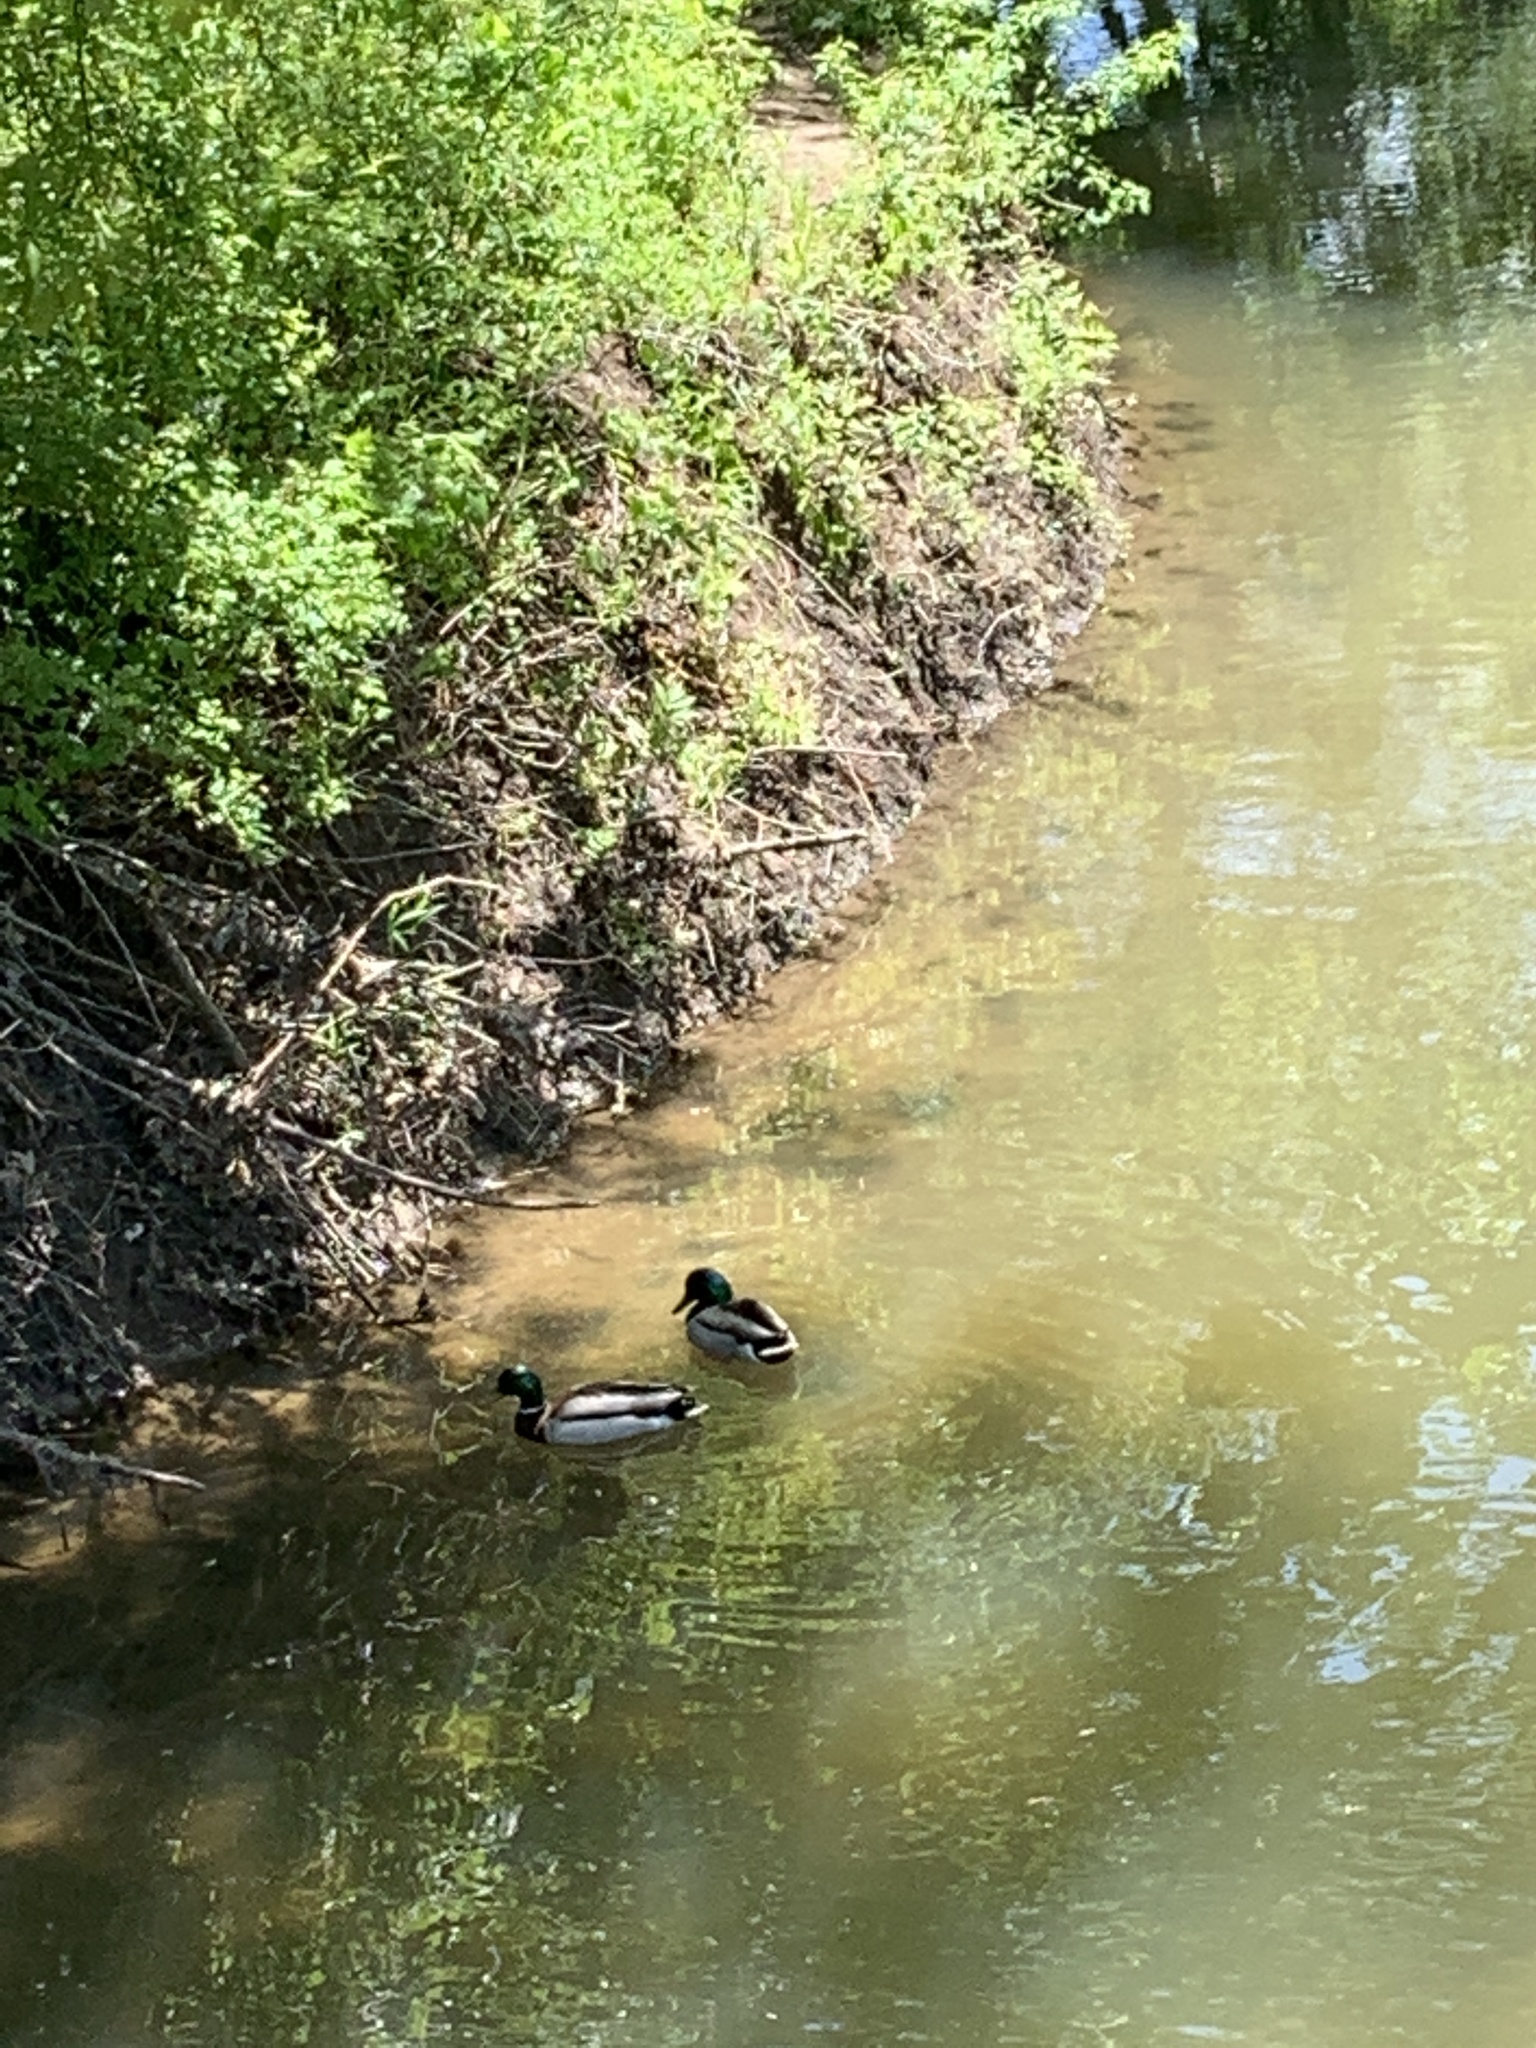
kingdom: Animalia
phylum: Chordata
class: Aves
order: Anseriformes
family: Anatidae
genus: Anas
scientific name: Anas platyrhynchos
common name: Mallard
